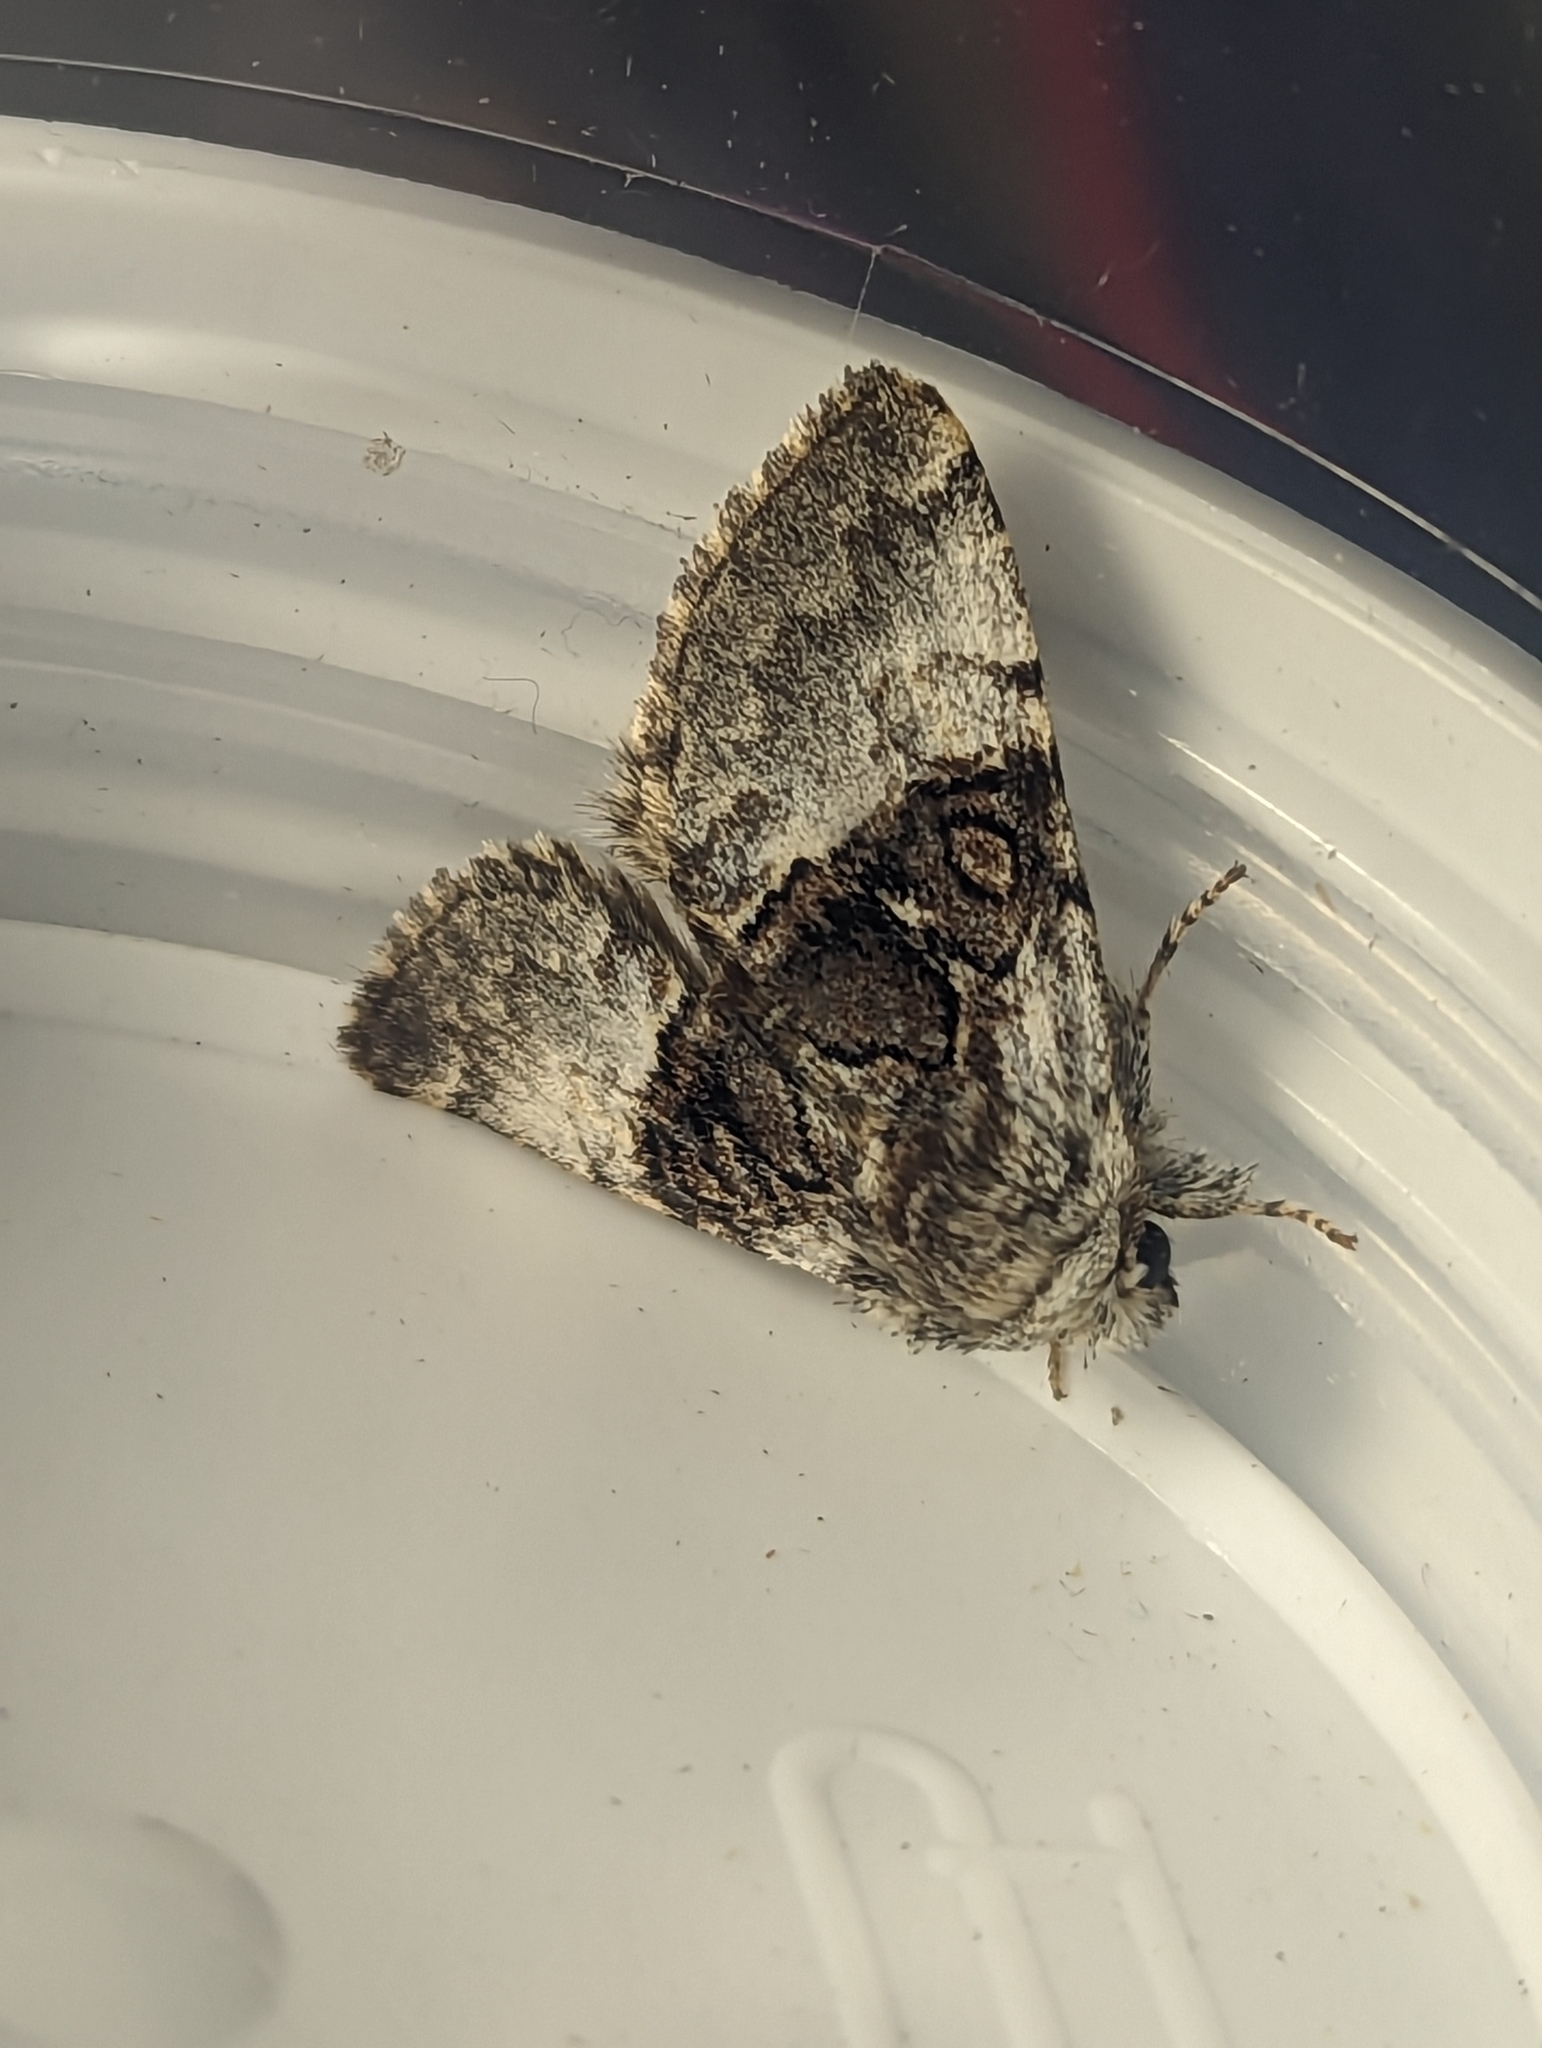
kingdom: Animalia
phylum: Arthropoda
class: Insecta
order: Lepidoptera
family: Noctuidae
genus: Colocasia
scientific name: Colocasia coryli
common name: Nut-tree tussock
